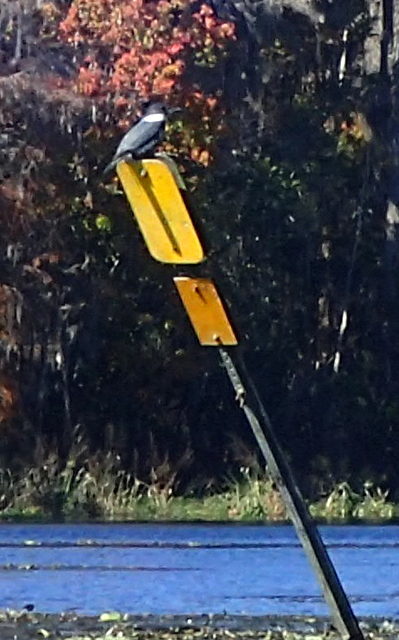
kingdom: Animalia
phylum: Chordata
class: Aves
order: Coraciiformes
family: Alcedinidae
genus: Megaceryle
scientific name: Megaceryle alcyon
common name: Belted kingfisher
